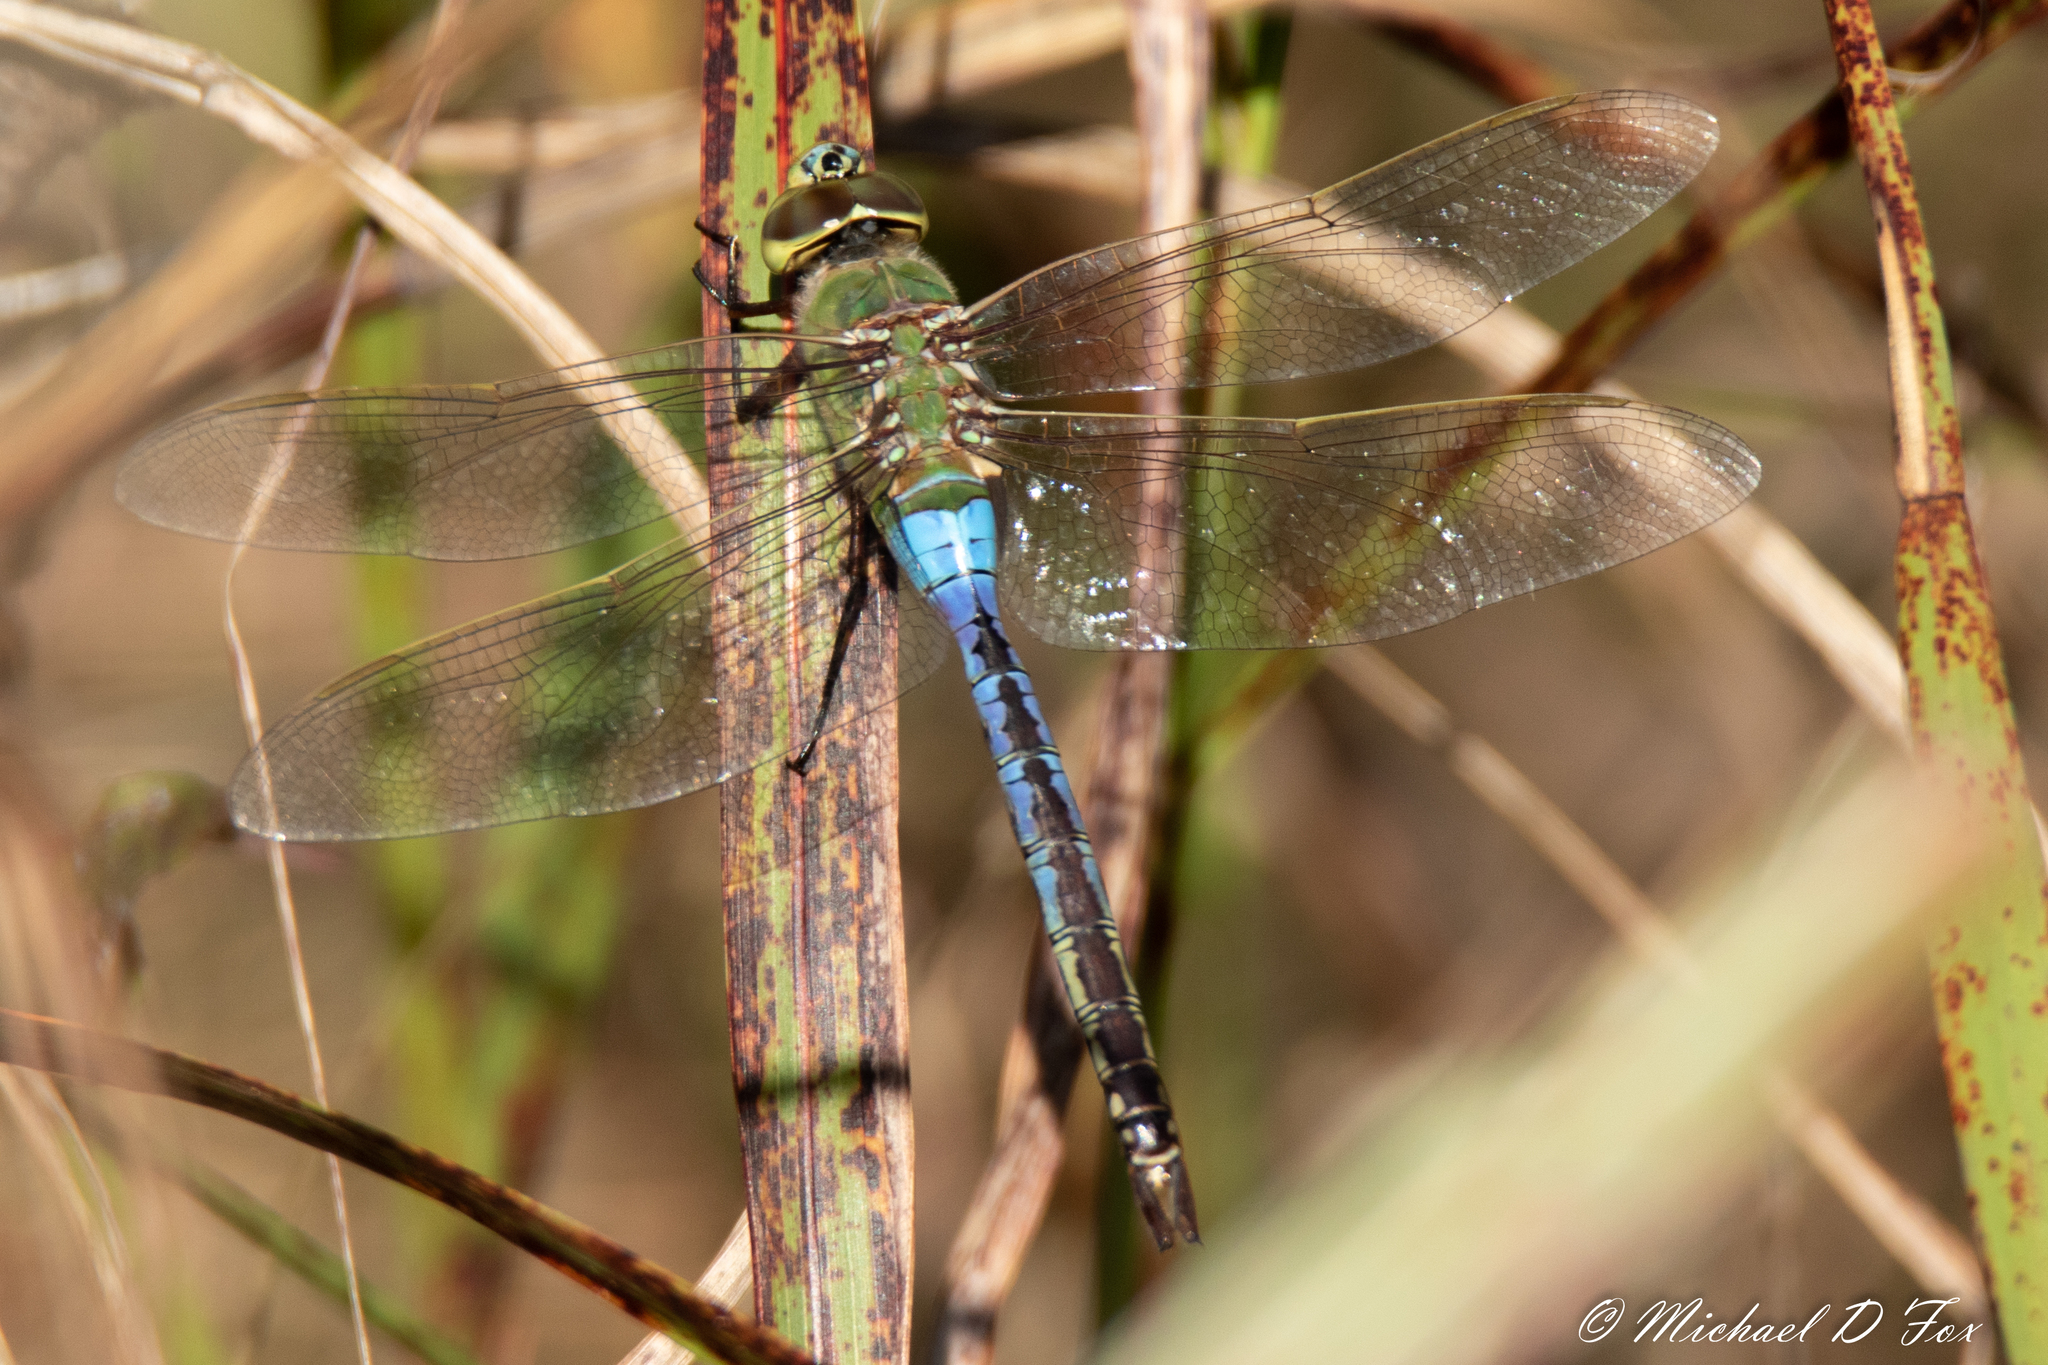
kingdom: Animalia
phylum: Arthropoda
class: Insecta
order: Odonata
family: Aeshnidae
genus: Anax
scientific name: Anax junius
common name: Common green darner
